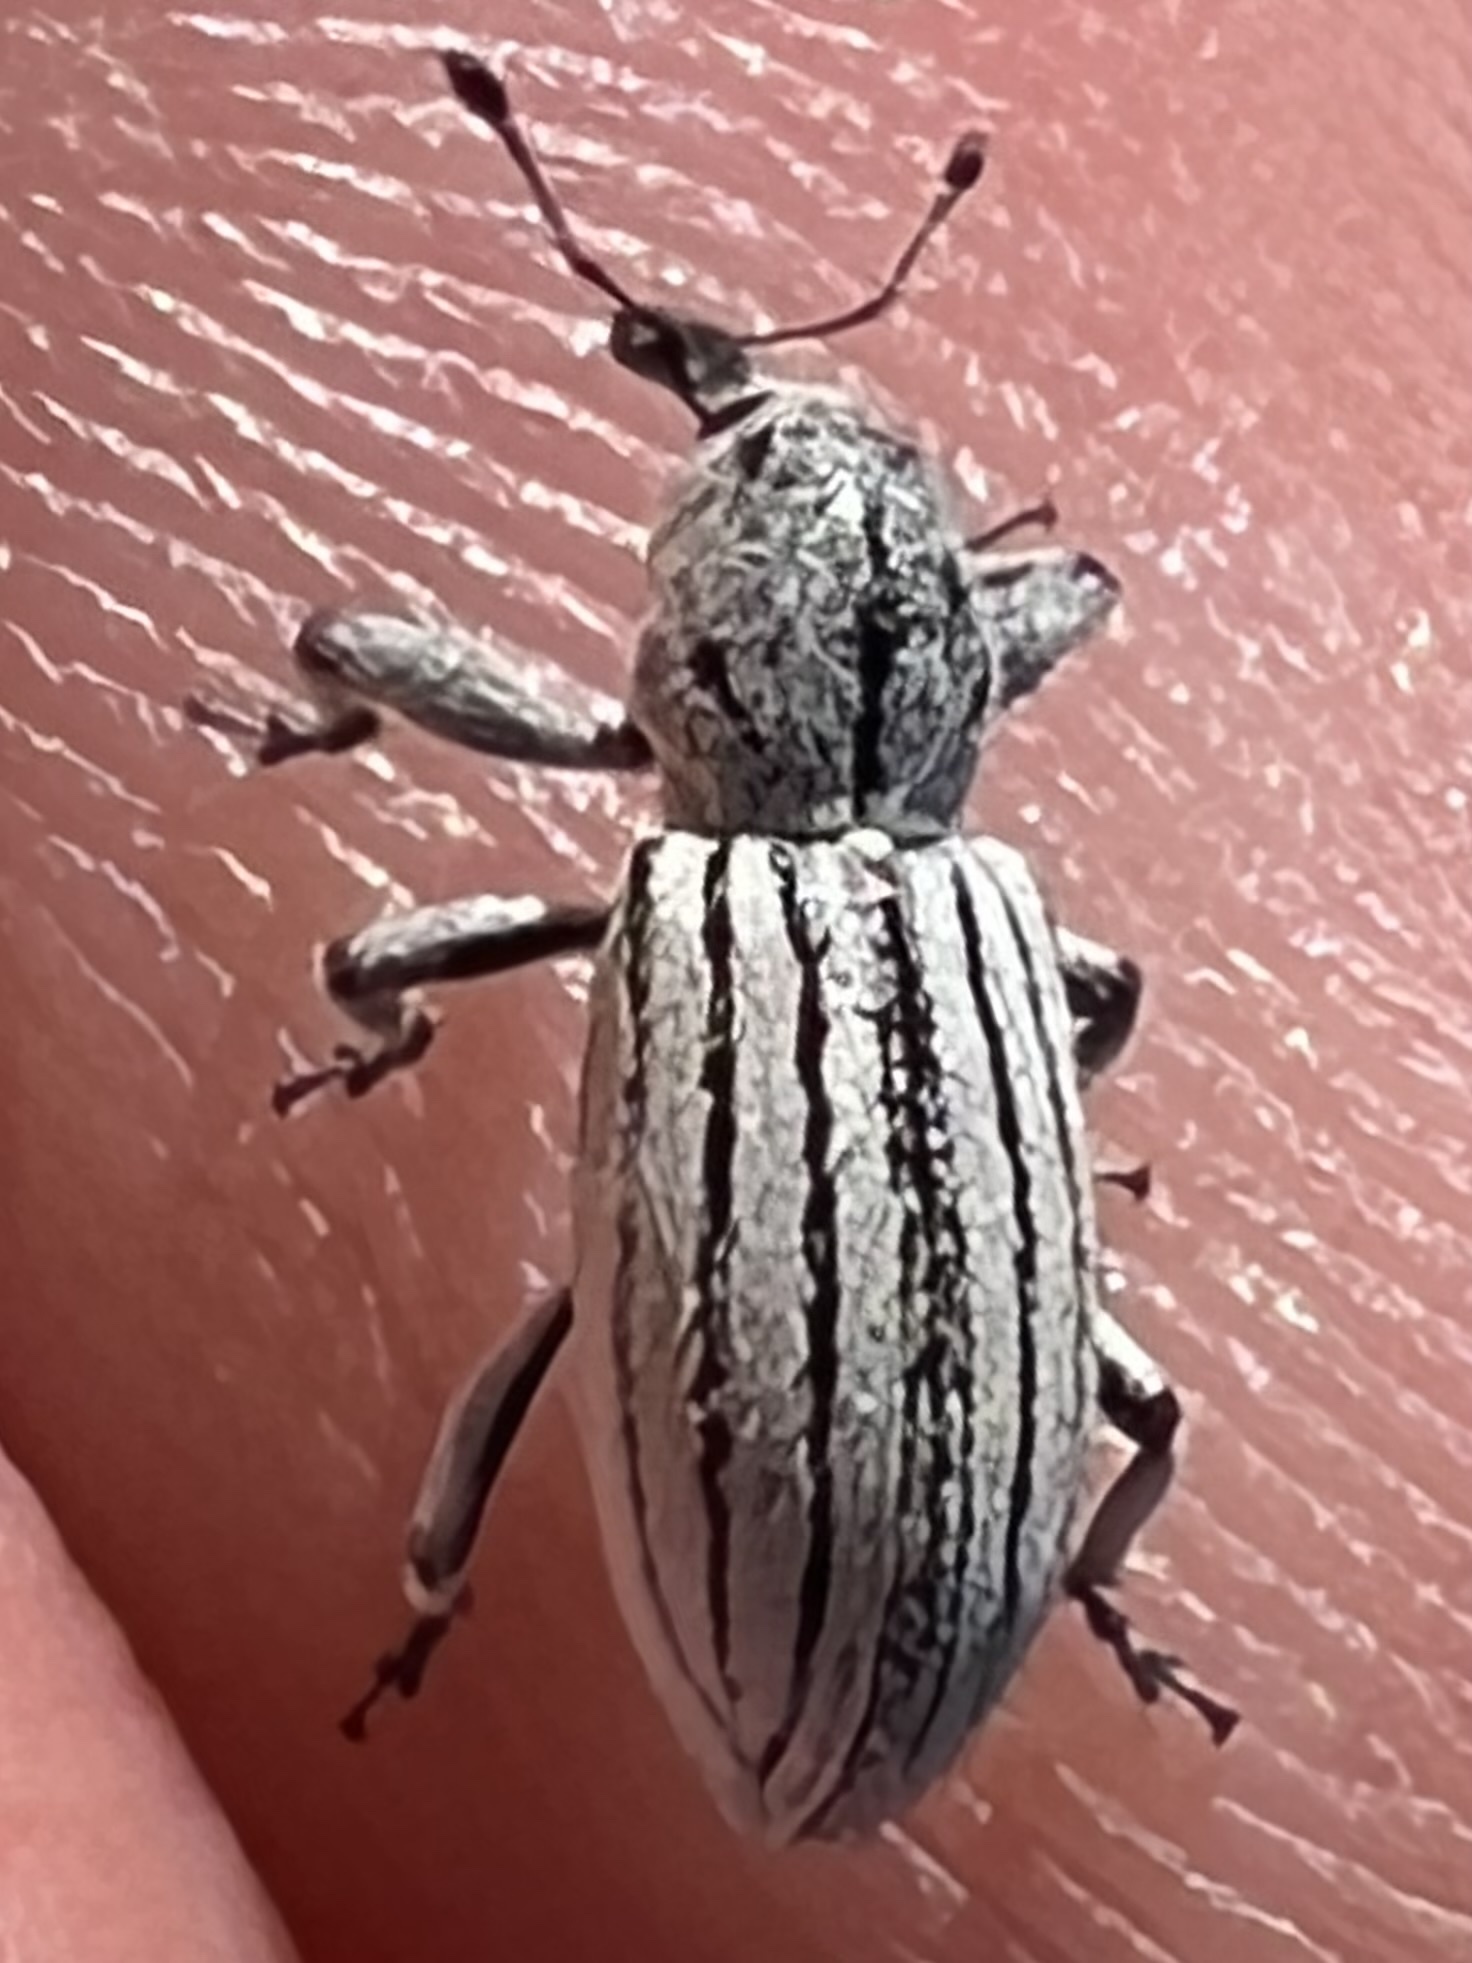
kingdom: Animalia
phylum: Arthropoda
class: Insecta
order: Coleoptera
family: Curculionidae
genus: Myrmex
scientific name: Myrmex lineatus
